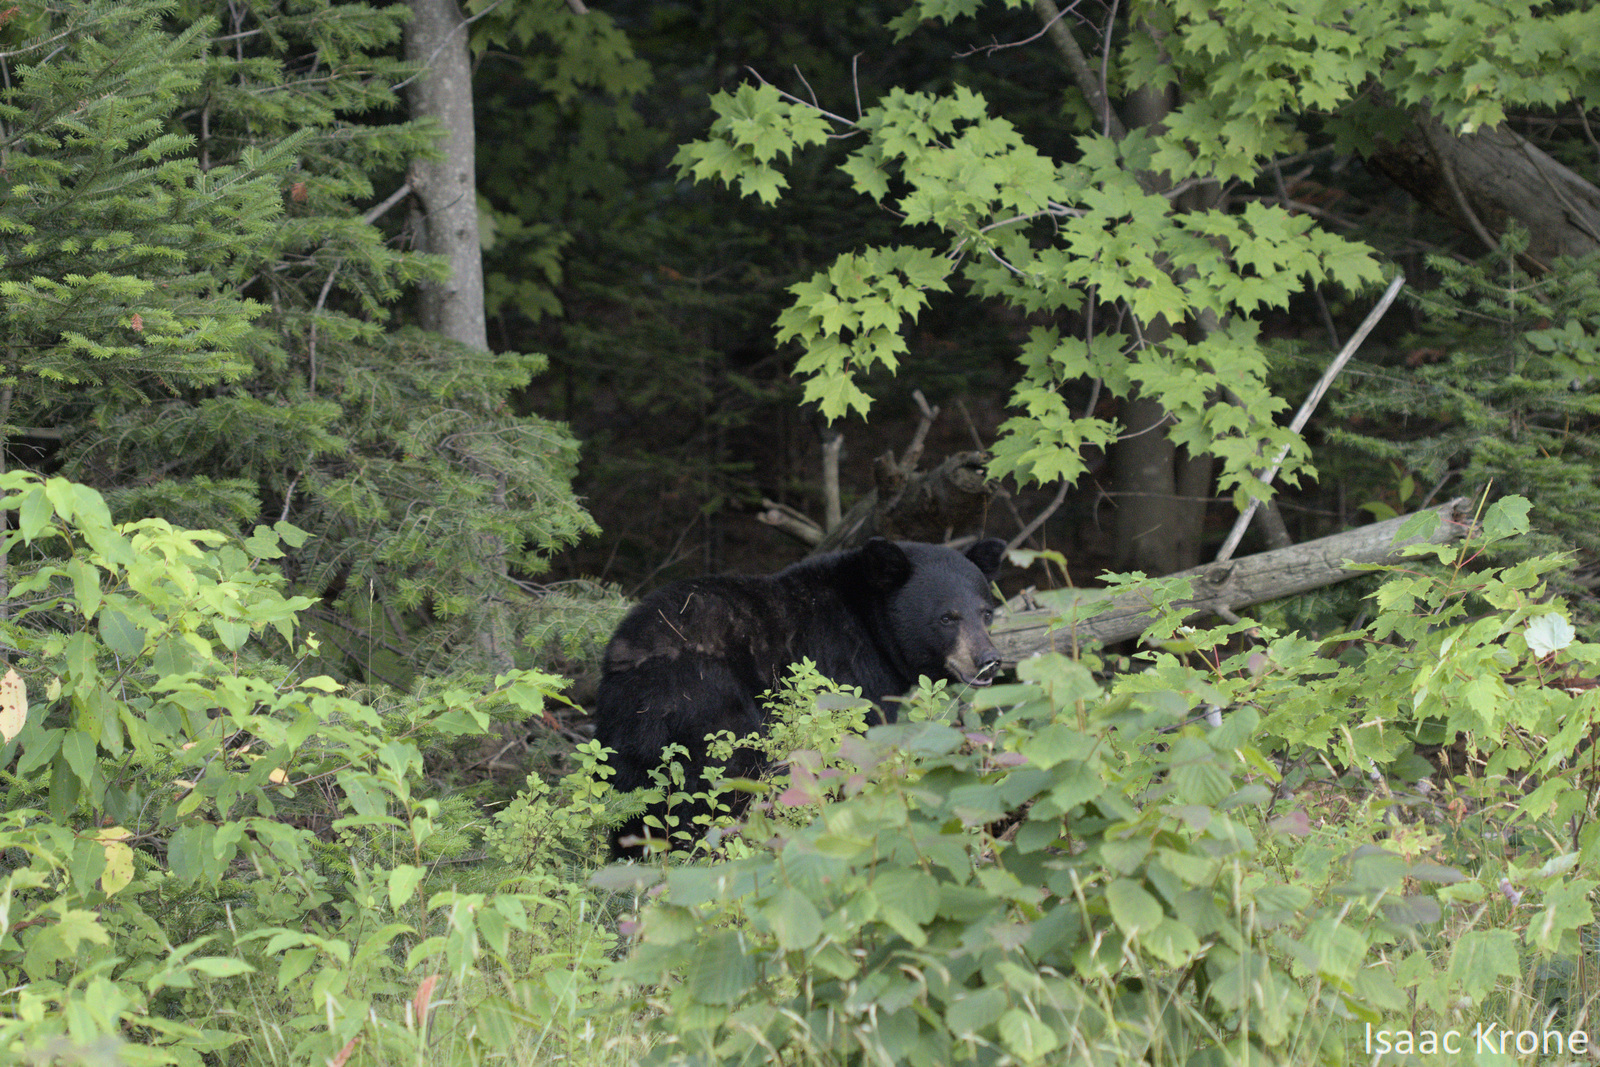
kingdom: Animalia
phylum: Chordata
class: Mammalia
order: Carnivora
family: Ursidae
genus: Ursus
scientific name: Ursus americanus
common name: American black bear
